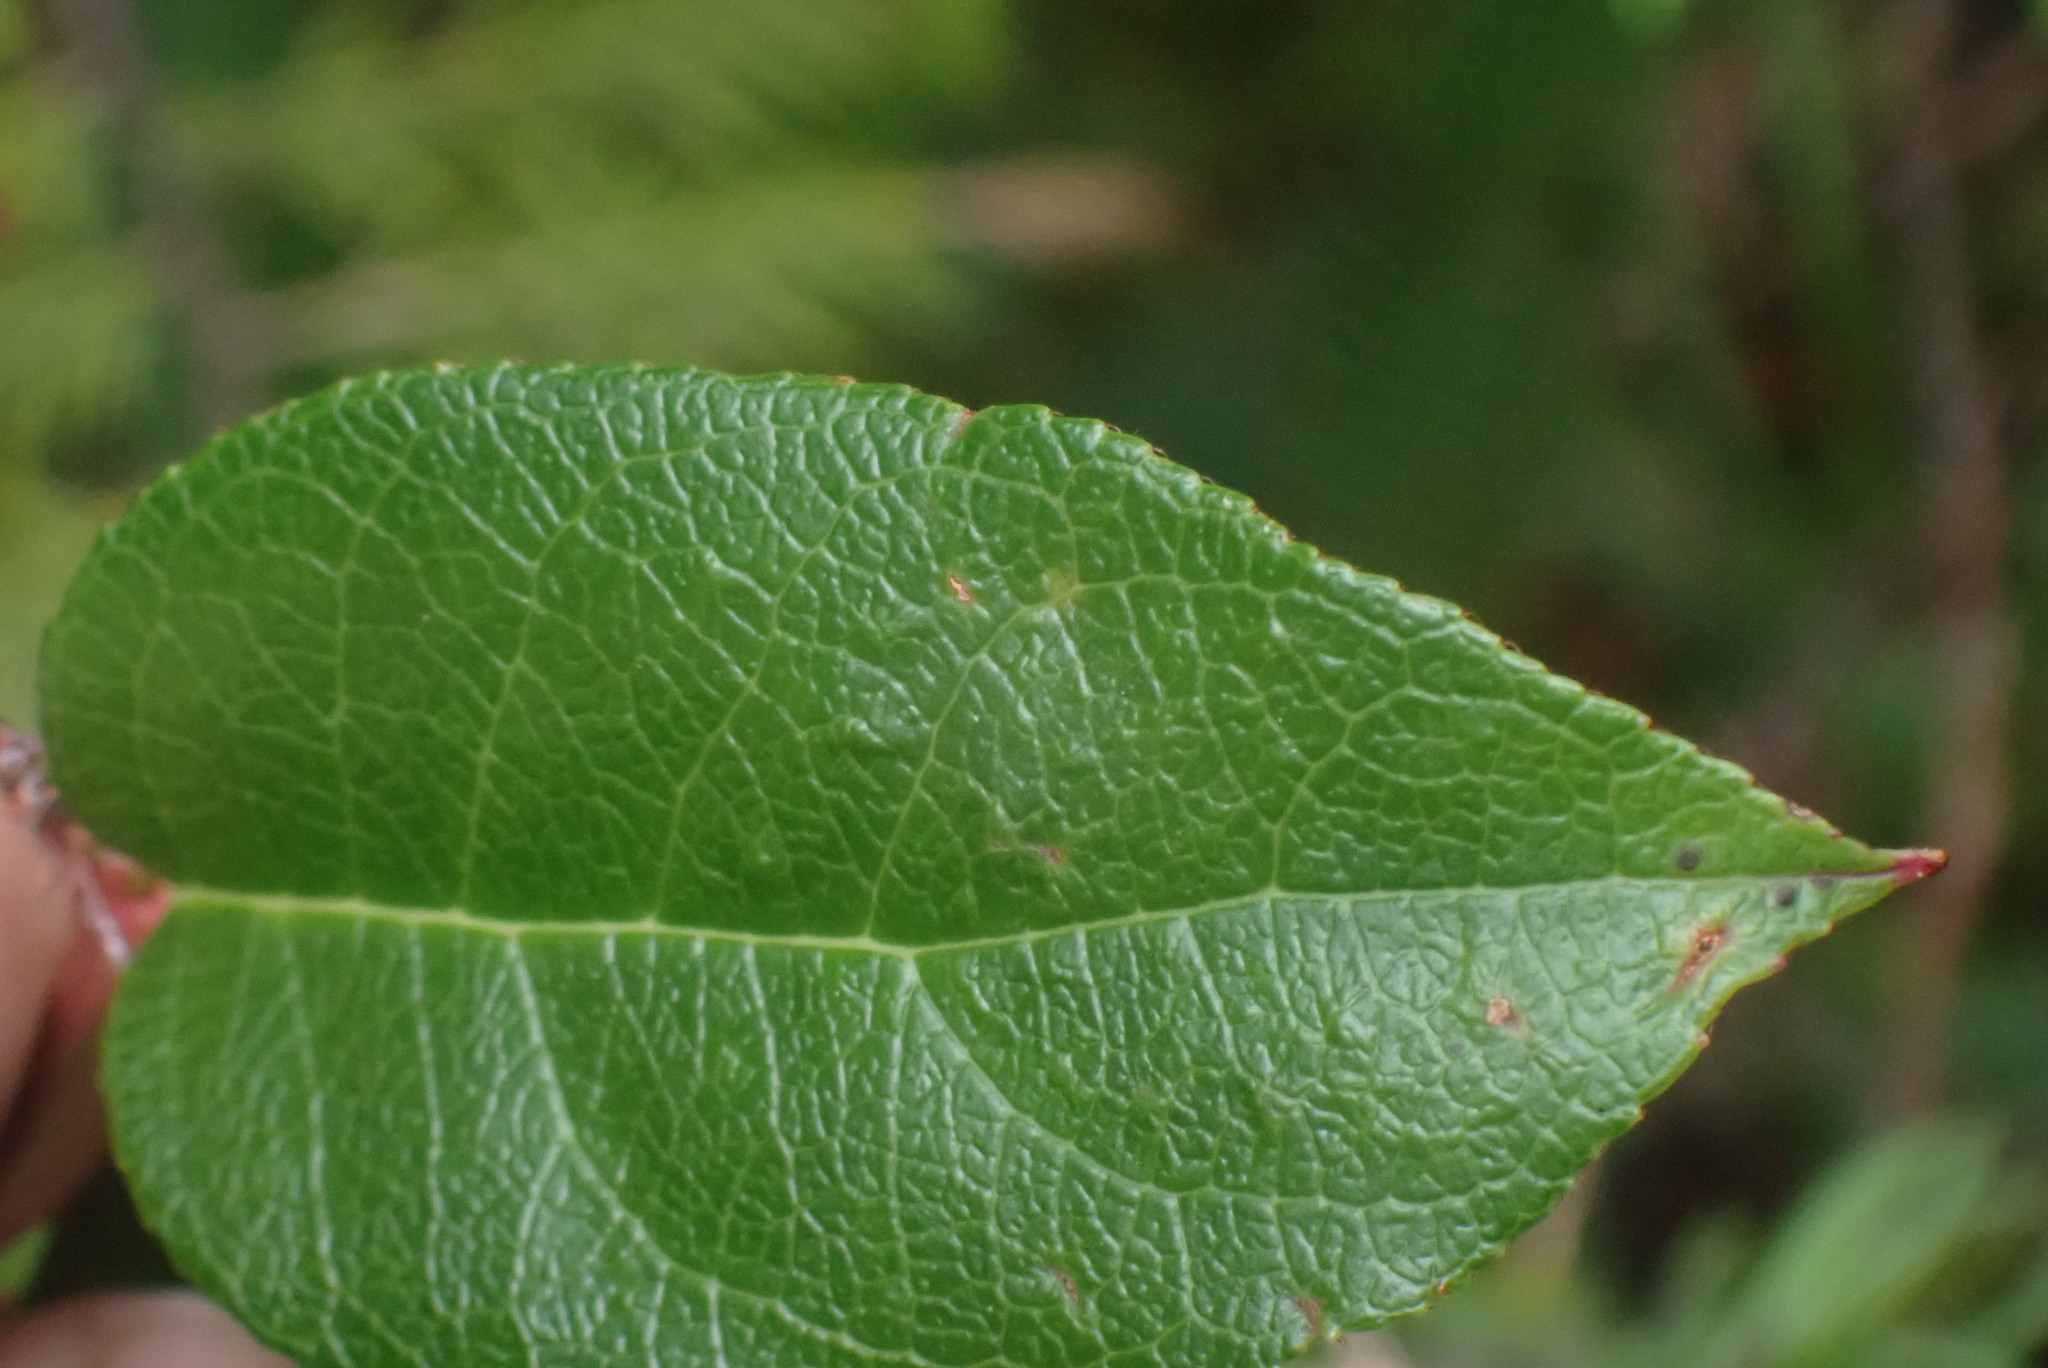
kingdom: Plantae
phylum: Tracheophyta
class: Magnoliopsida
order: Ericales
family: Ericaceae
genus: Gaultheria
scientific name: Gaultheria shallon
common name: Shallon
